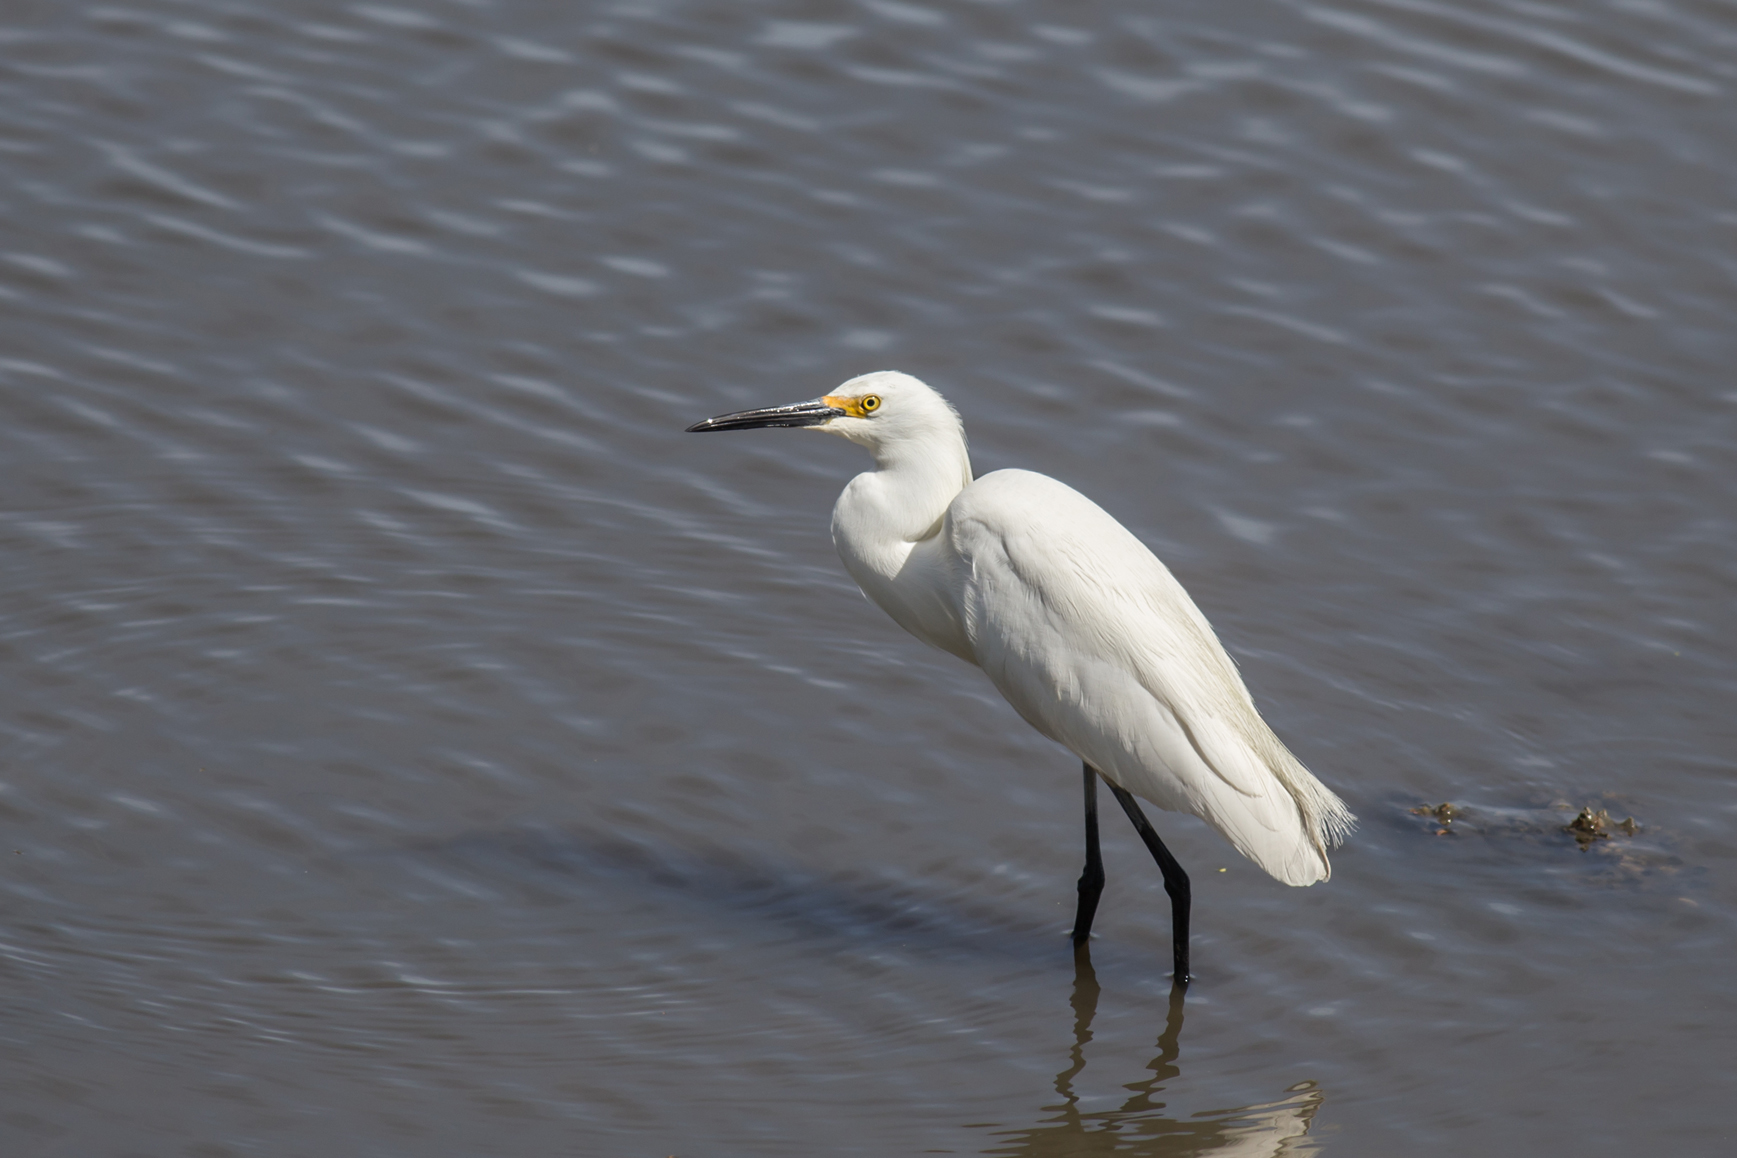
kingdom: Animalia
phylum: Chordata
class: Aves
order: Pelecaniformes
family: Ardeidae
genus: Egretta
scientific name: Egretta thula
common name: Snowy egret
